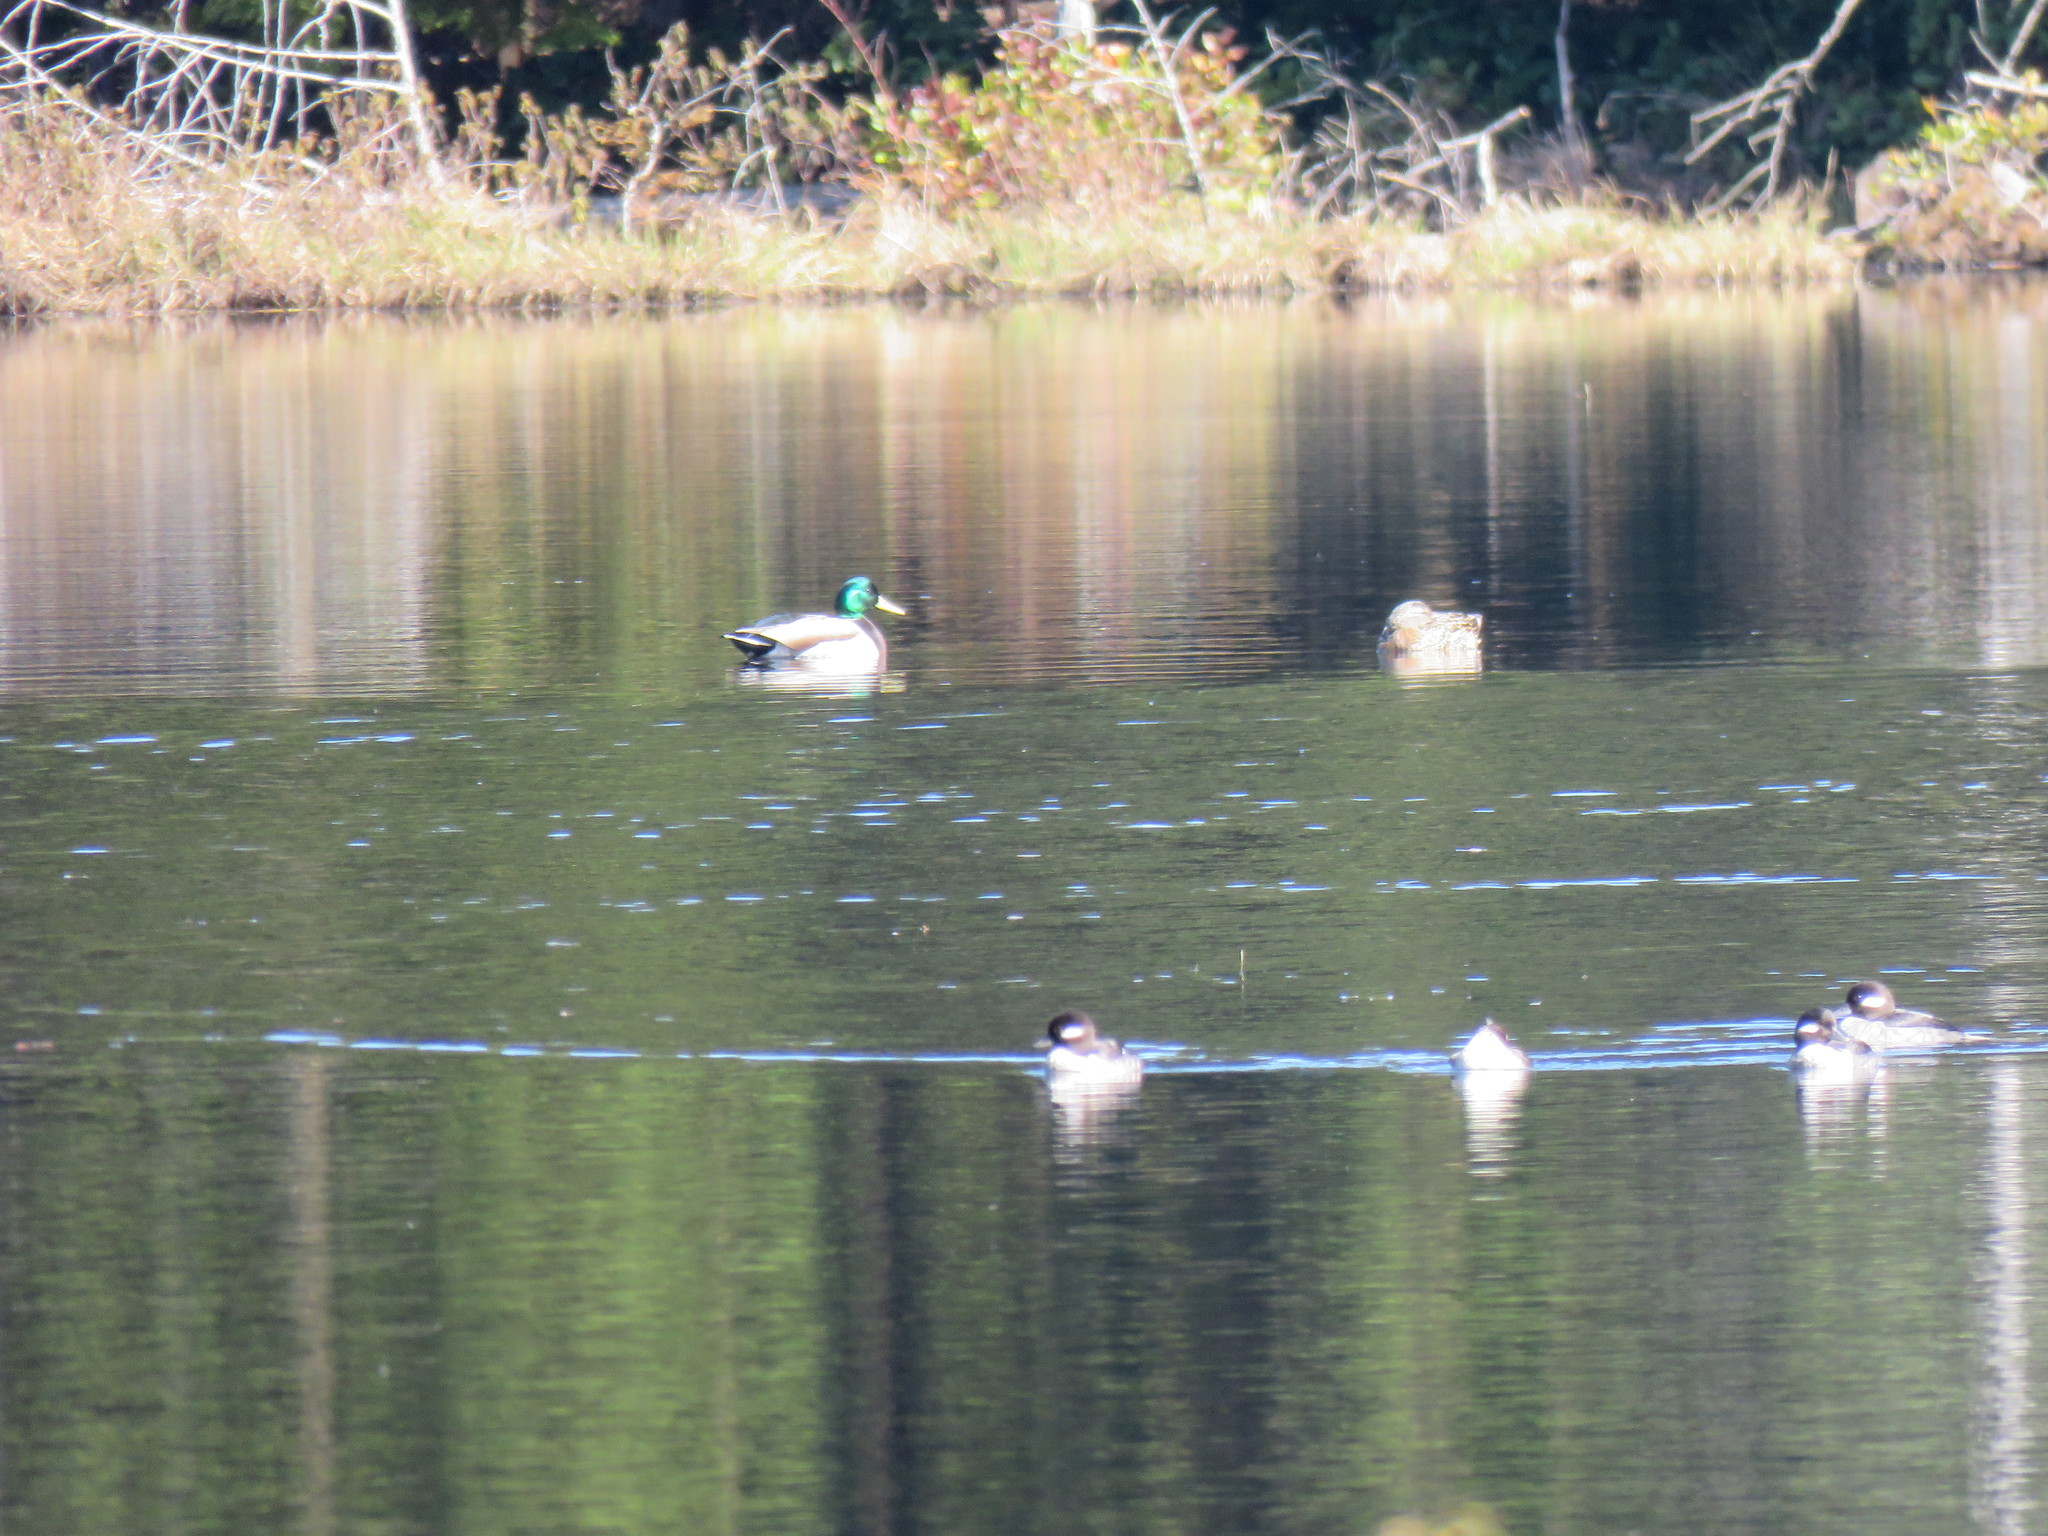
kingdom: Animalia
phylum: Chordata
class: Aves
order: Anseriformes
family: Anatidae
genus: Anas
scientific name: Anas platyrhynchos
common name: Mallard
